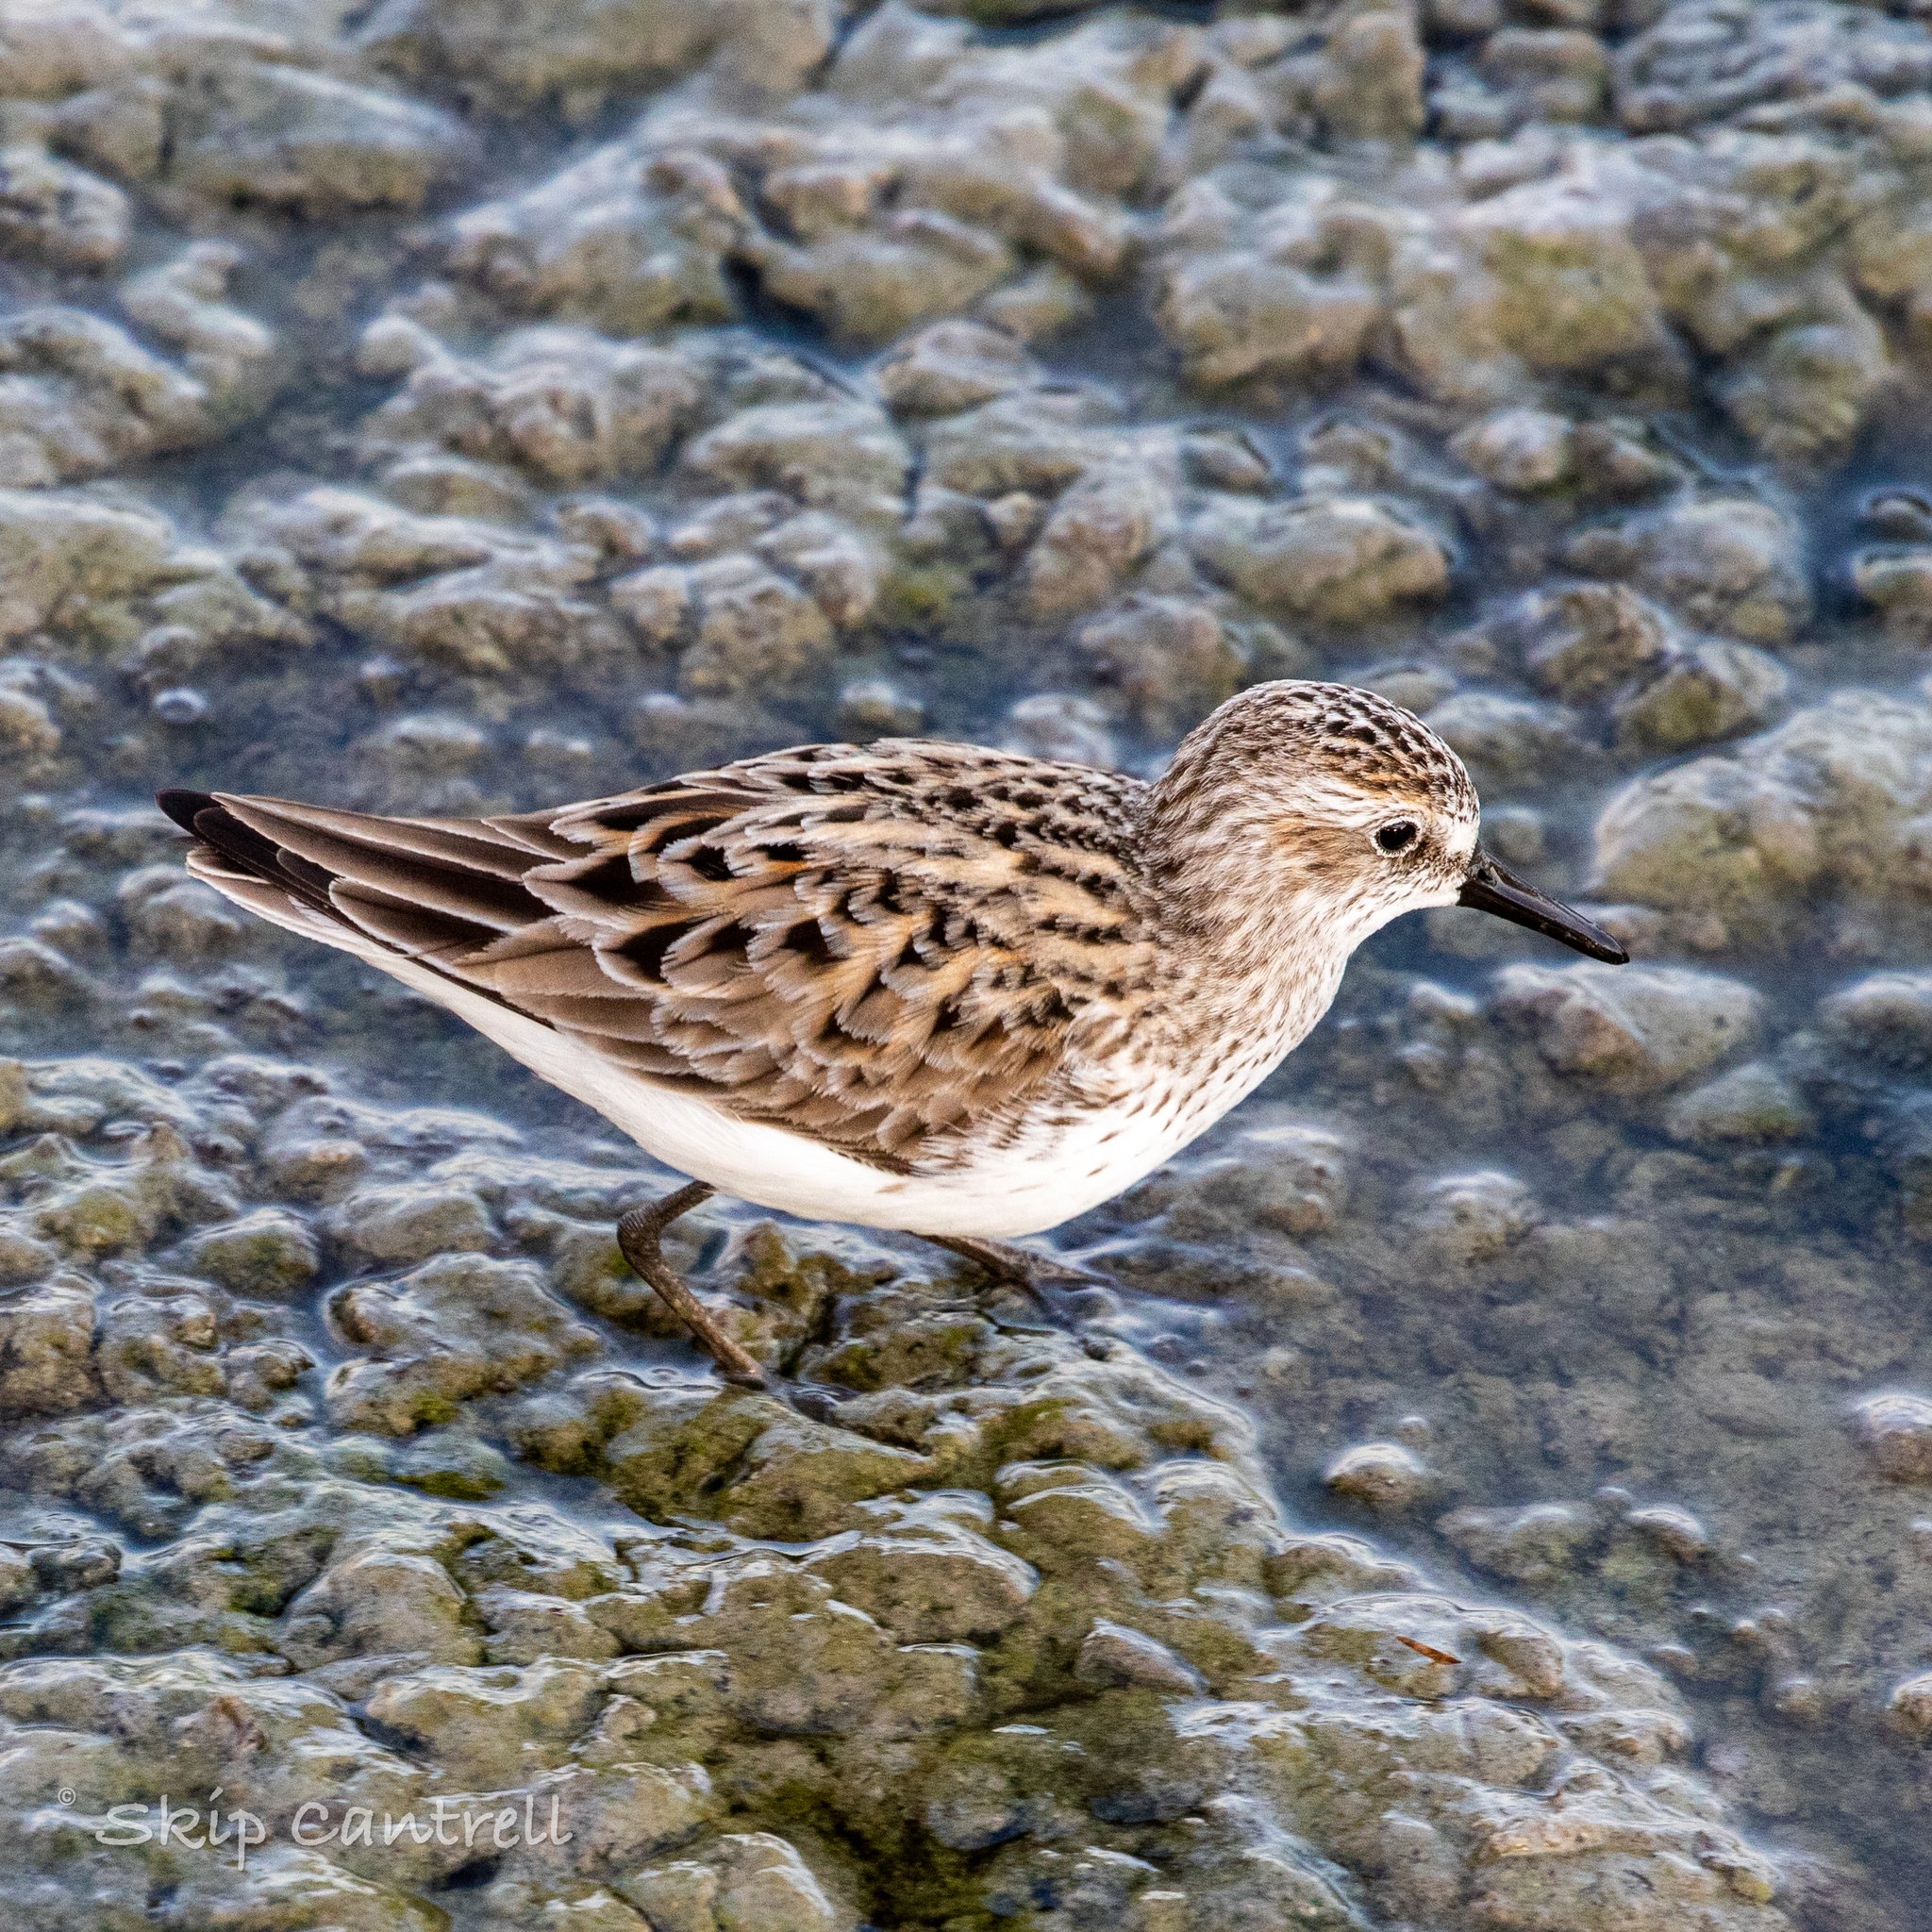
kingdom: Animalia
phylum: Chordata
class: Aves
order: Charadriiformes
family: Scolopacidae
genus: Calidris
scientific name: Calidris pusilla
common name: Semipalmated sandpiper
